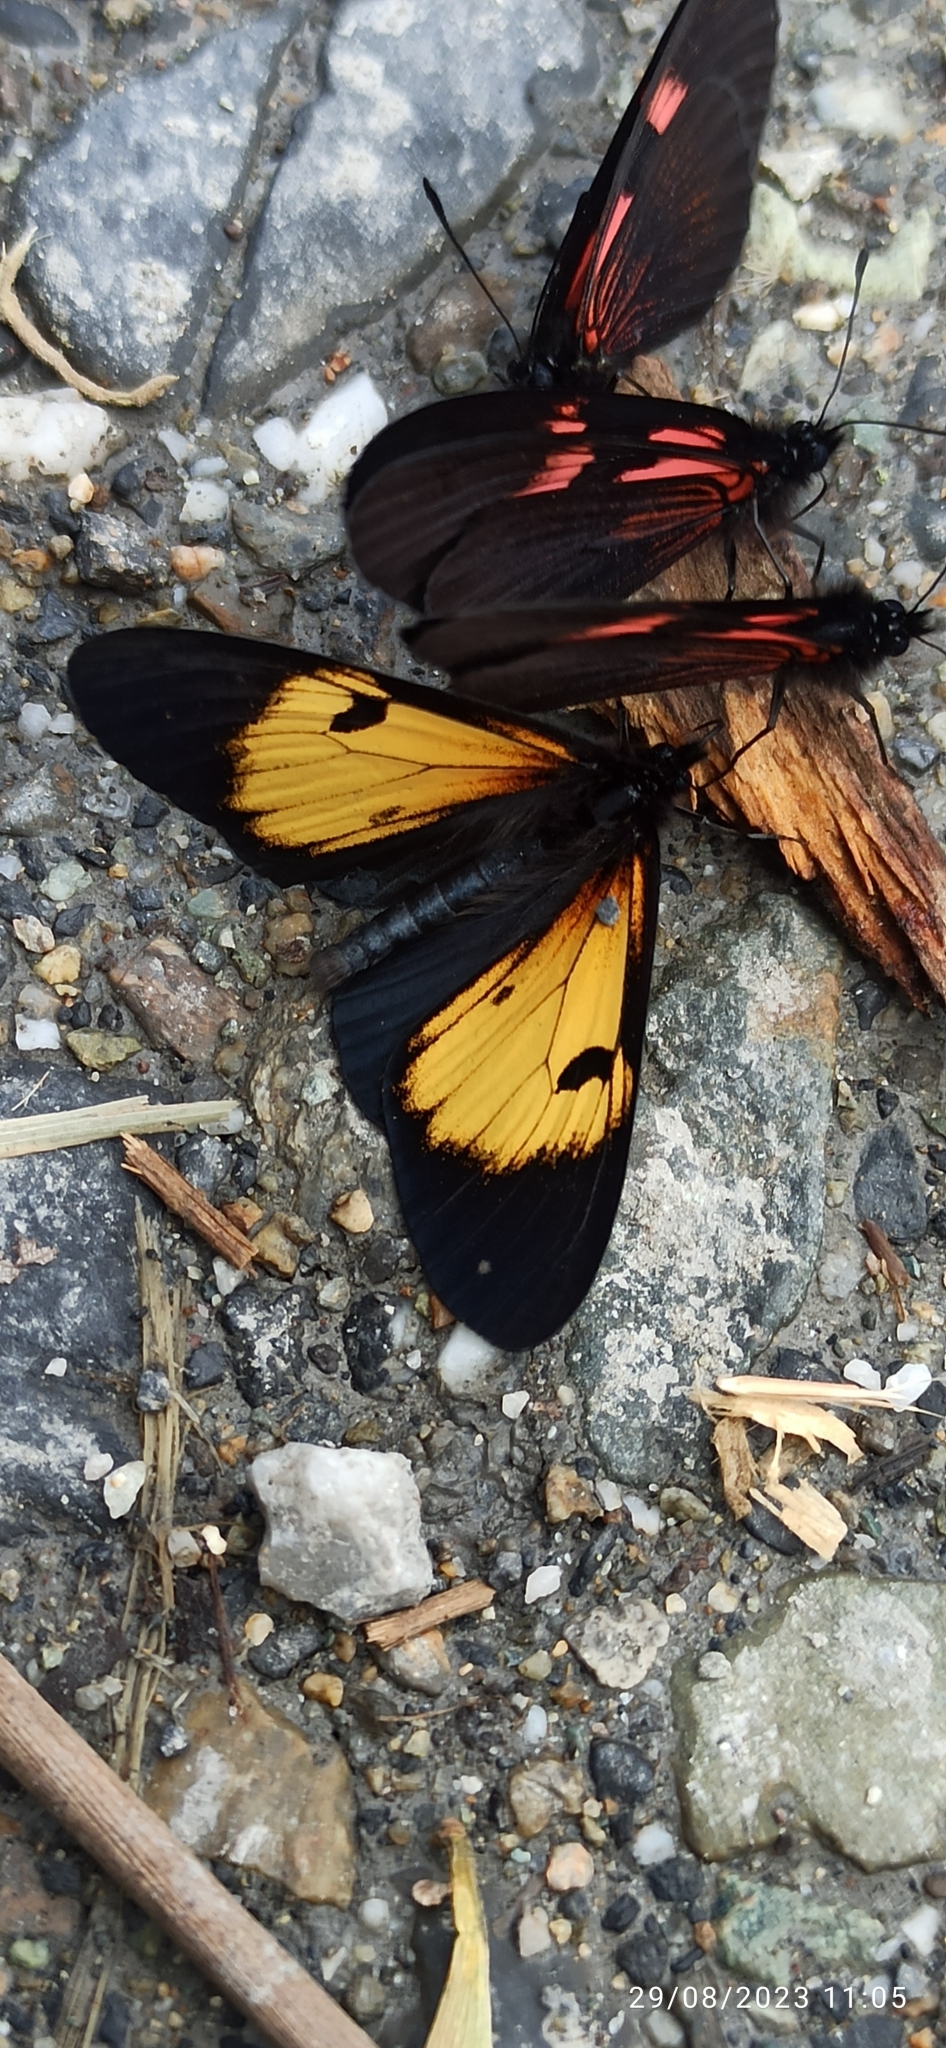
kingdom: Animalia
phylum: Arthropoda
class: Insecta
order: Lepidoptera
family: Nymphalidae
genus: Actinote
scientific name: Actinote stratonice
